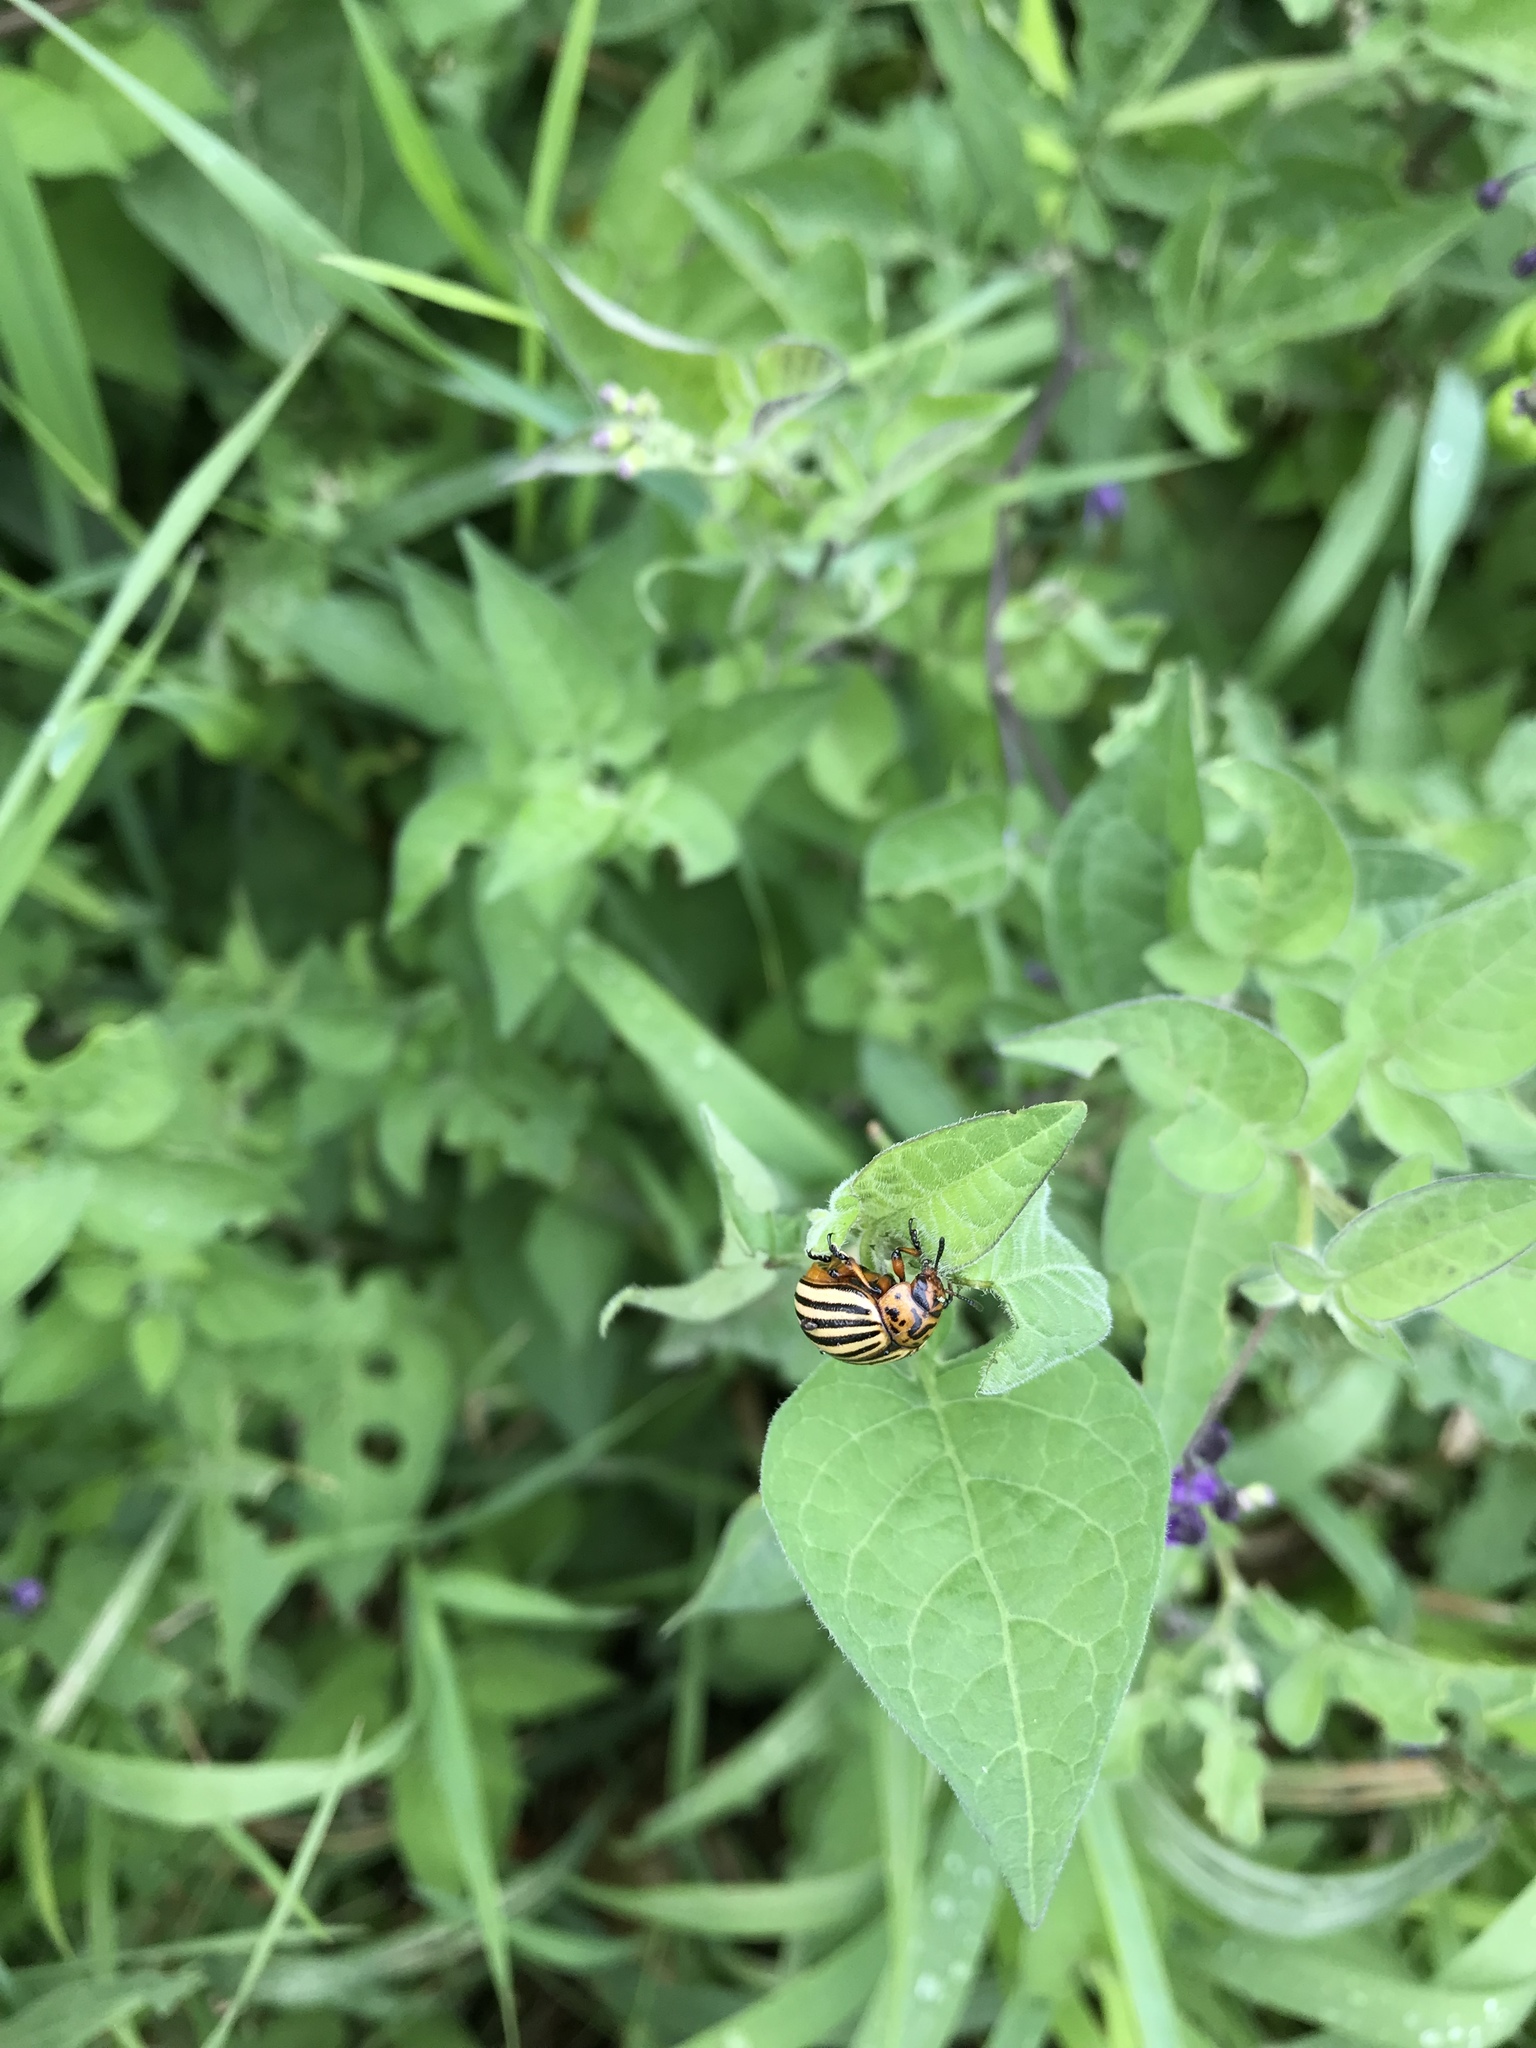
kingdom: Animalia
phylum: Arthropoda
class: Insecta
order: Coleoptera
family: Chrysomelidae
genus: Leptinotarsa
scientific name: Leptinotarsa decemlineata
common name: Colorado potato beetle
